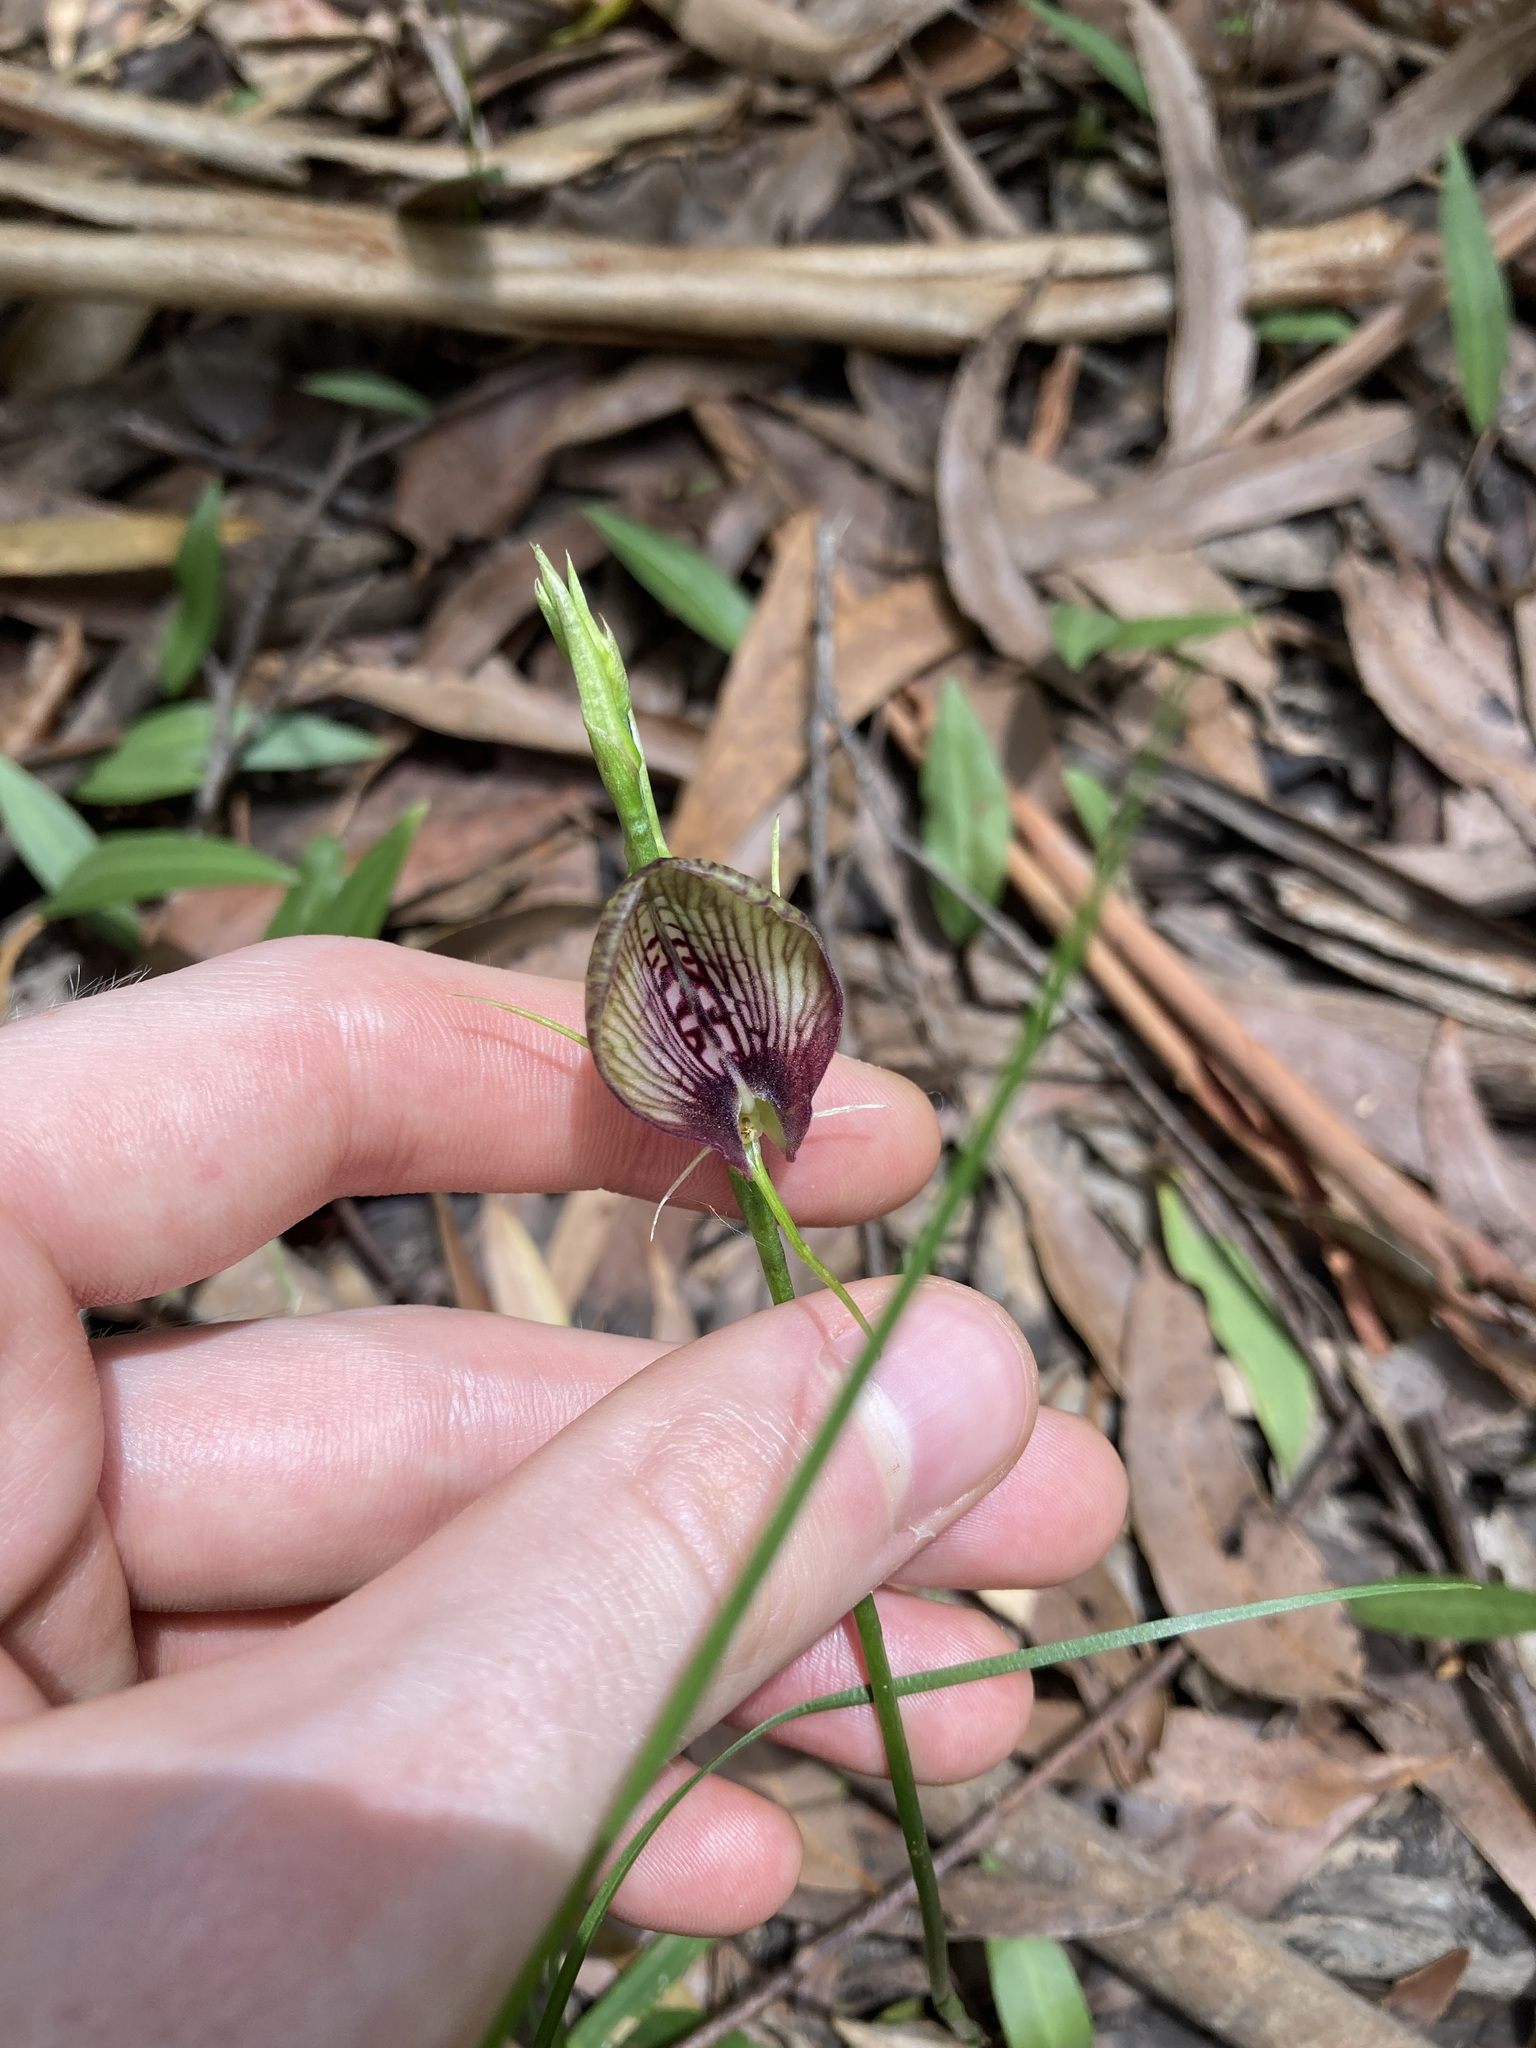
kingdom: Plantae
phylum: Tracheophyta
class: Liliopsida
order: Asparagales
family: Orchidaceae
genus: Cryptostylis
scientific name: Cryptostylis erecta
